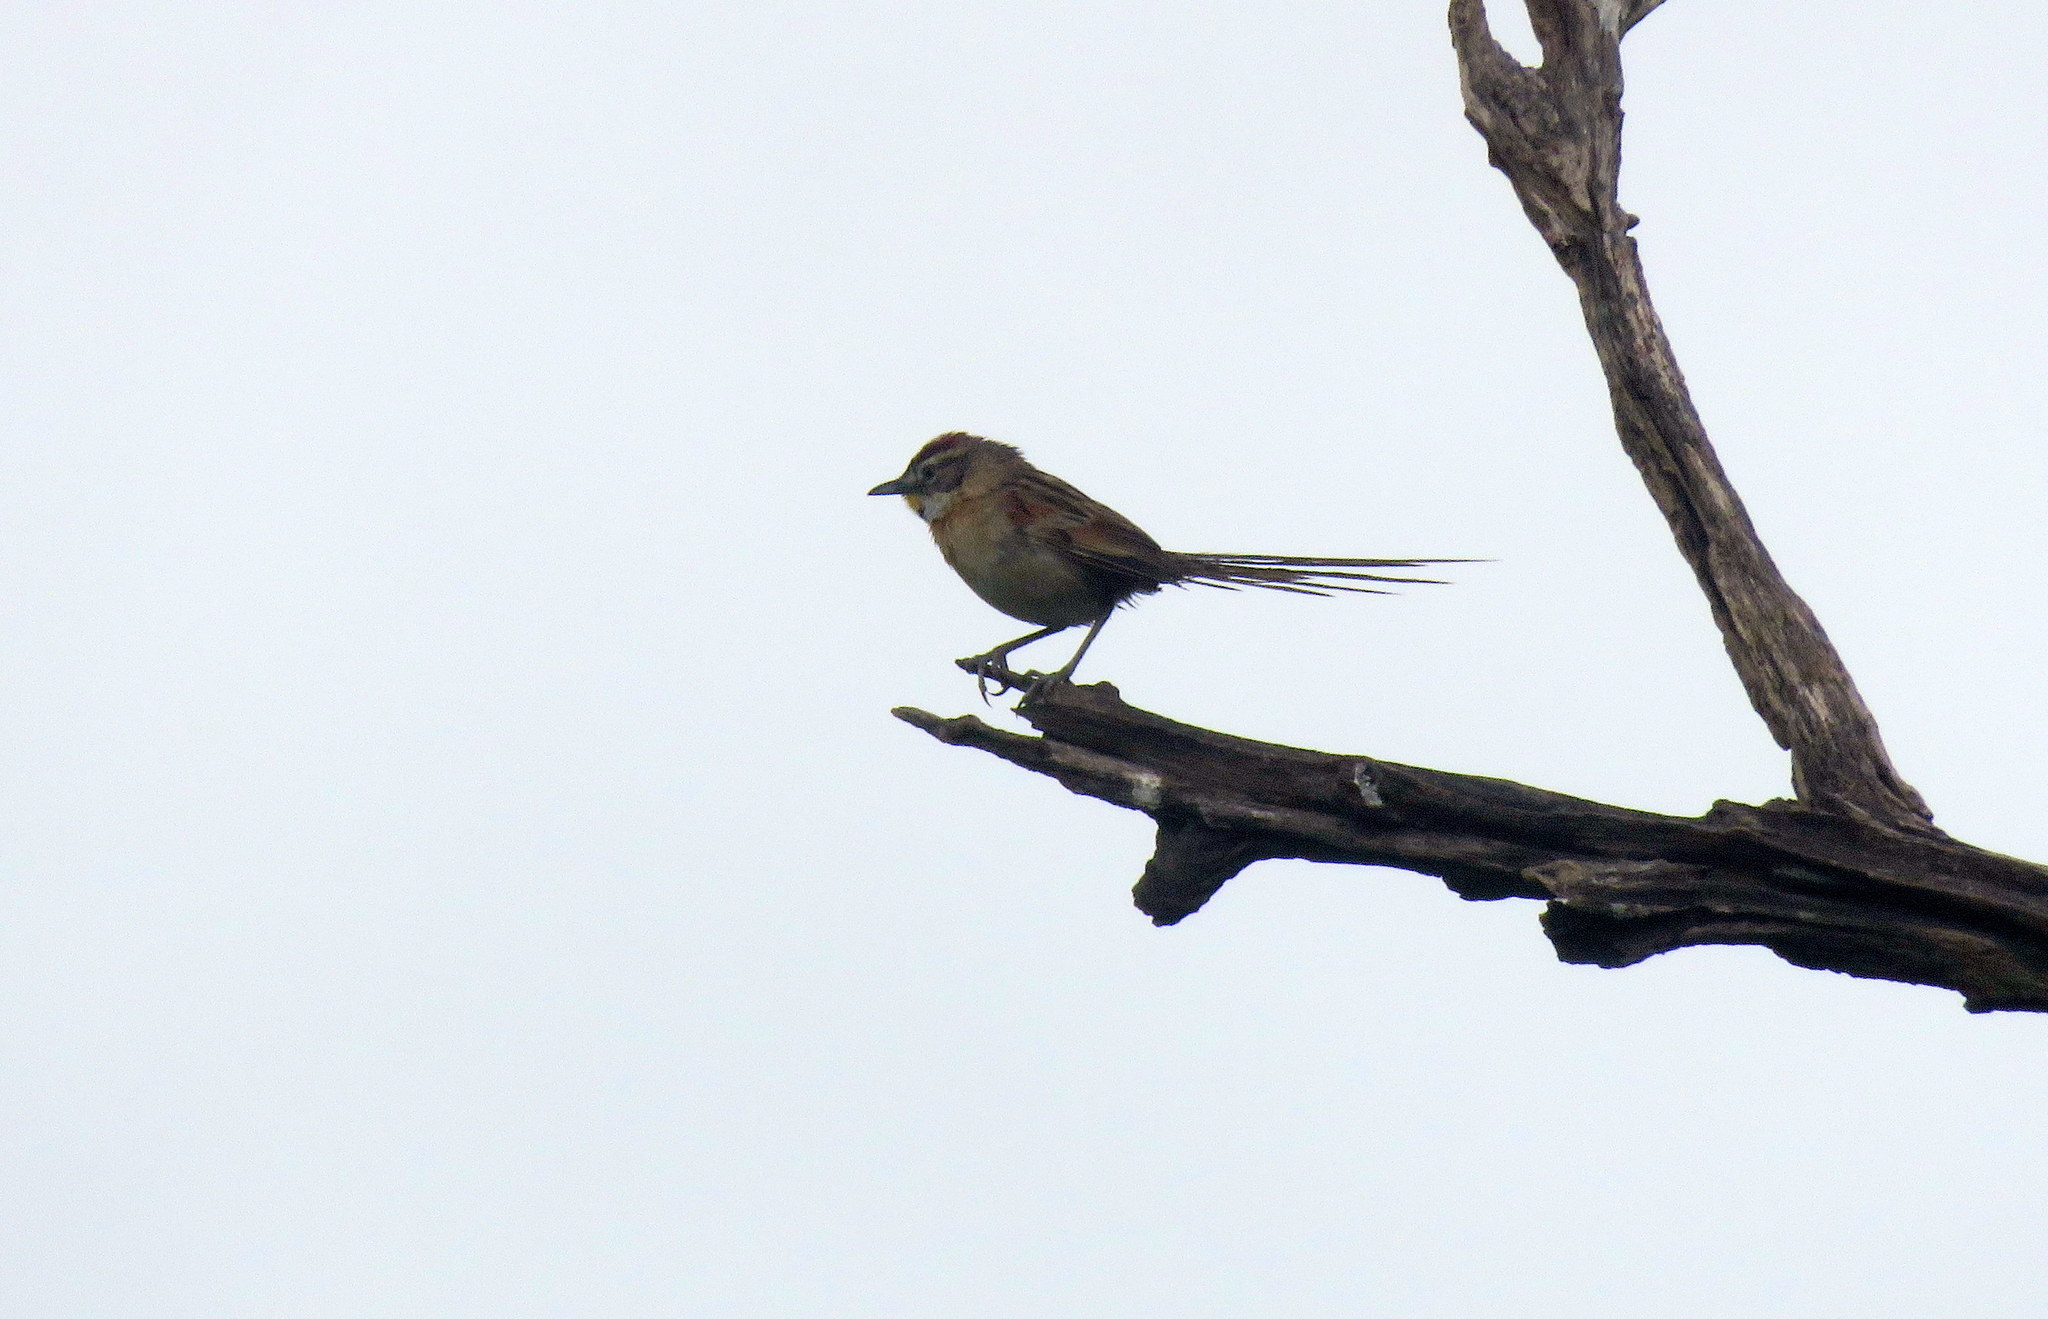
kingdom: Animalia
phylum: Chordata
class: Aves
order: Passeriformes
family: Furnariidae
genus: Schoeniophylax
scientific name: Schoeniophylax phryganophilus
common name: Chotoy spinetail
